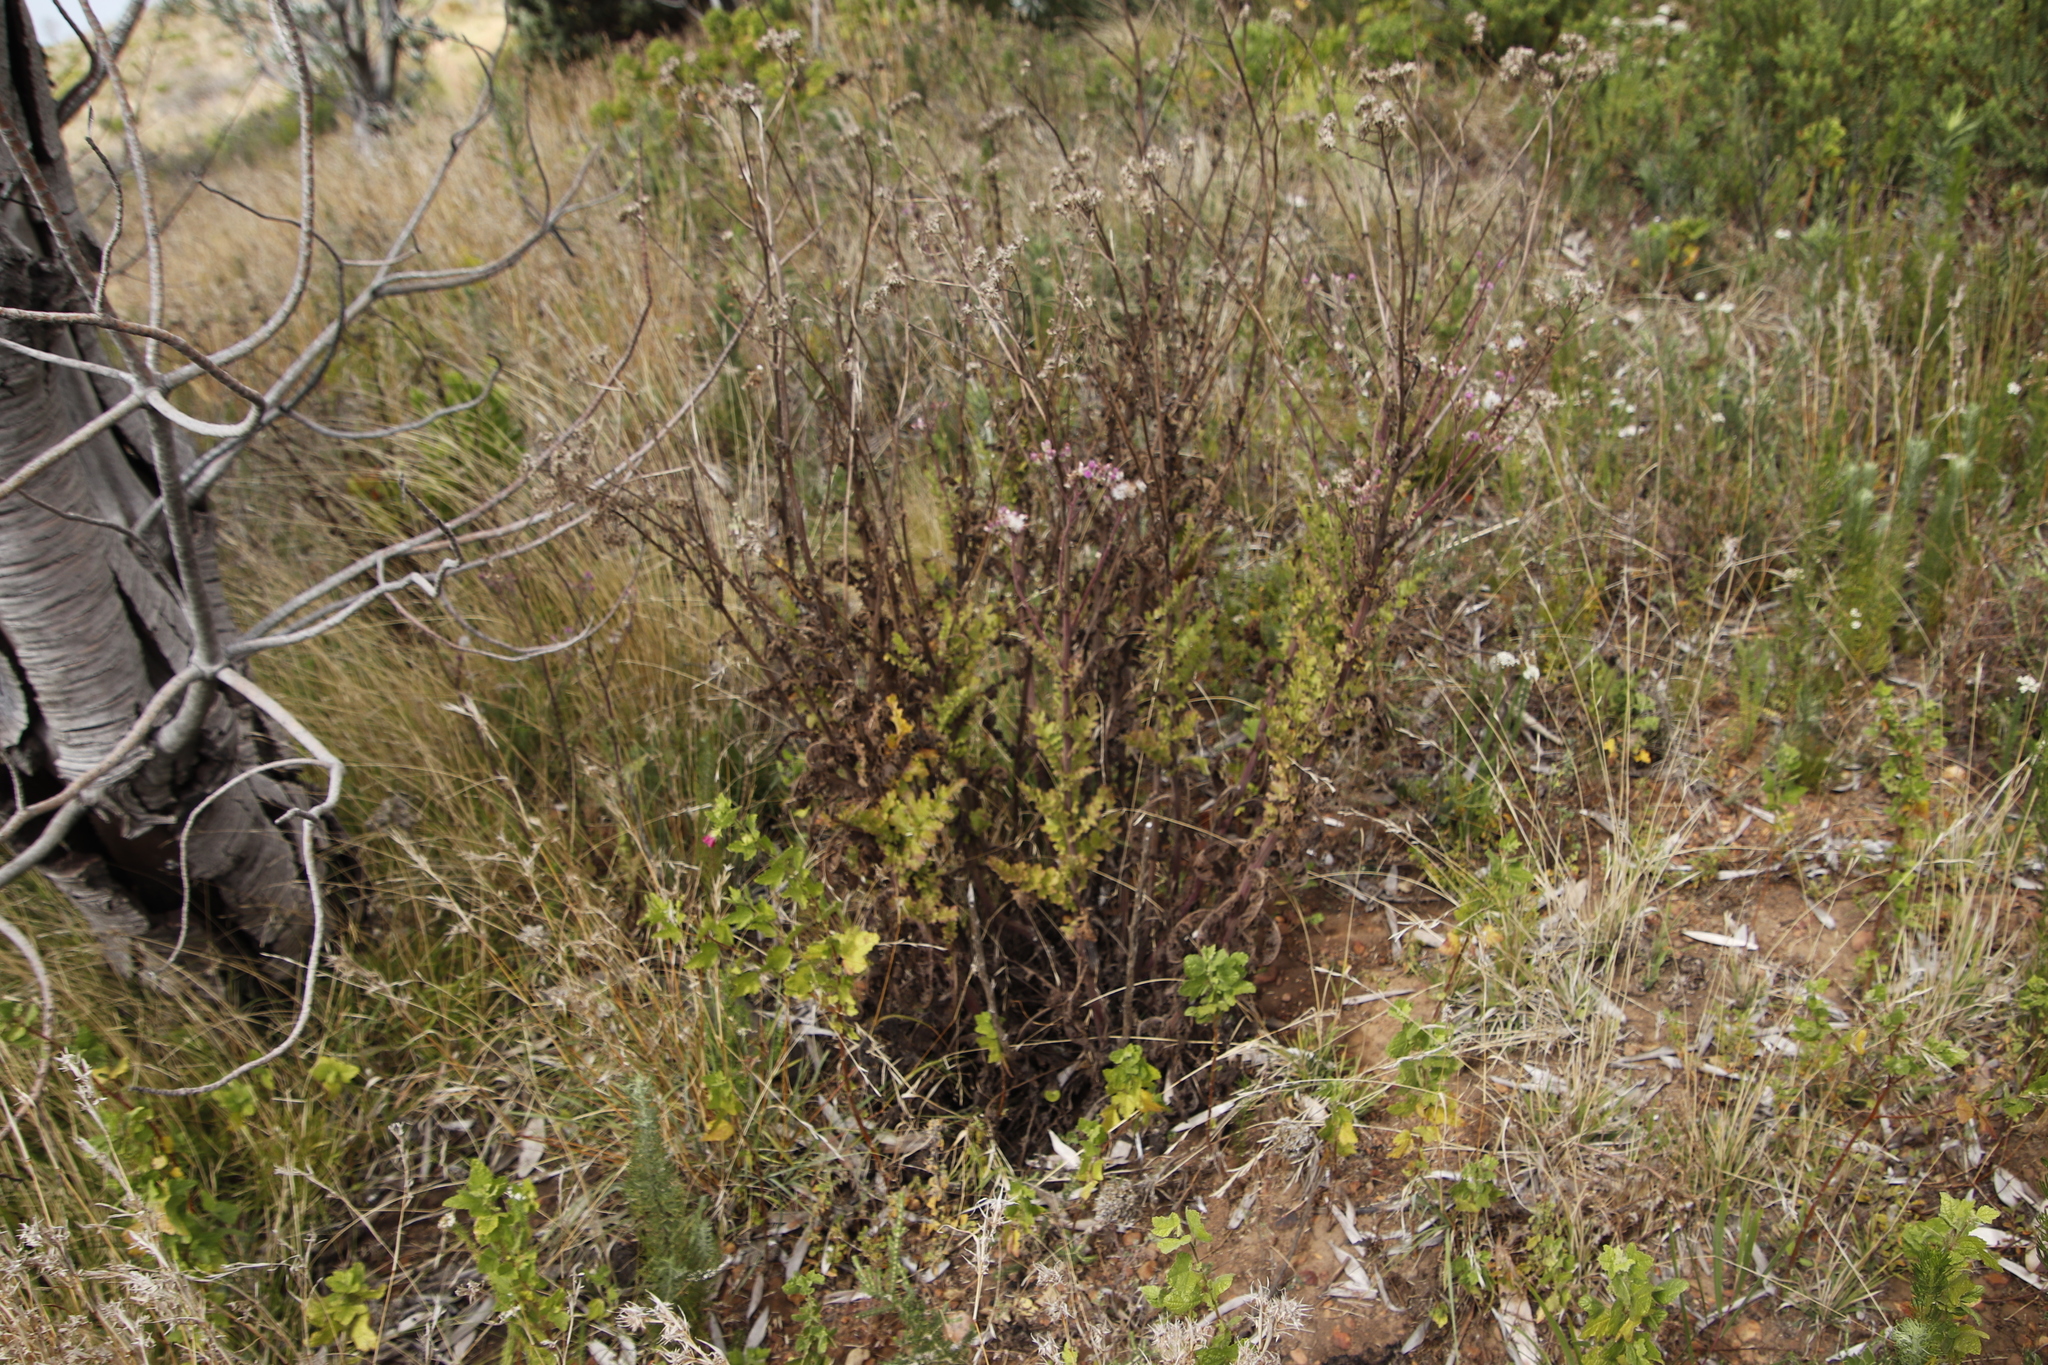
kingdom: Plantae
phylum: Tracheophyta
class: Magnoliopsida
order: Asterales
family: Asteraceae
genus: Senecio
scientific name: Senecio purpureus
